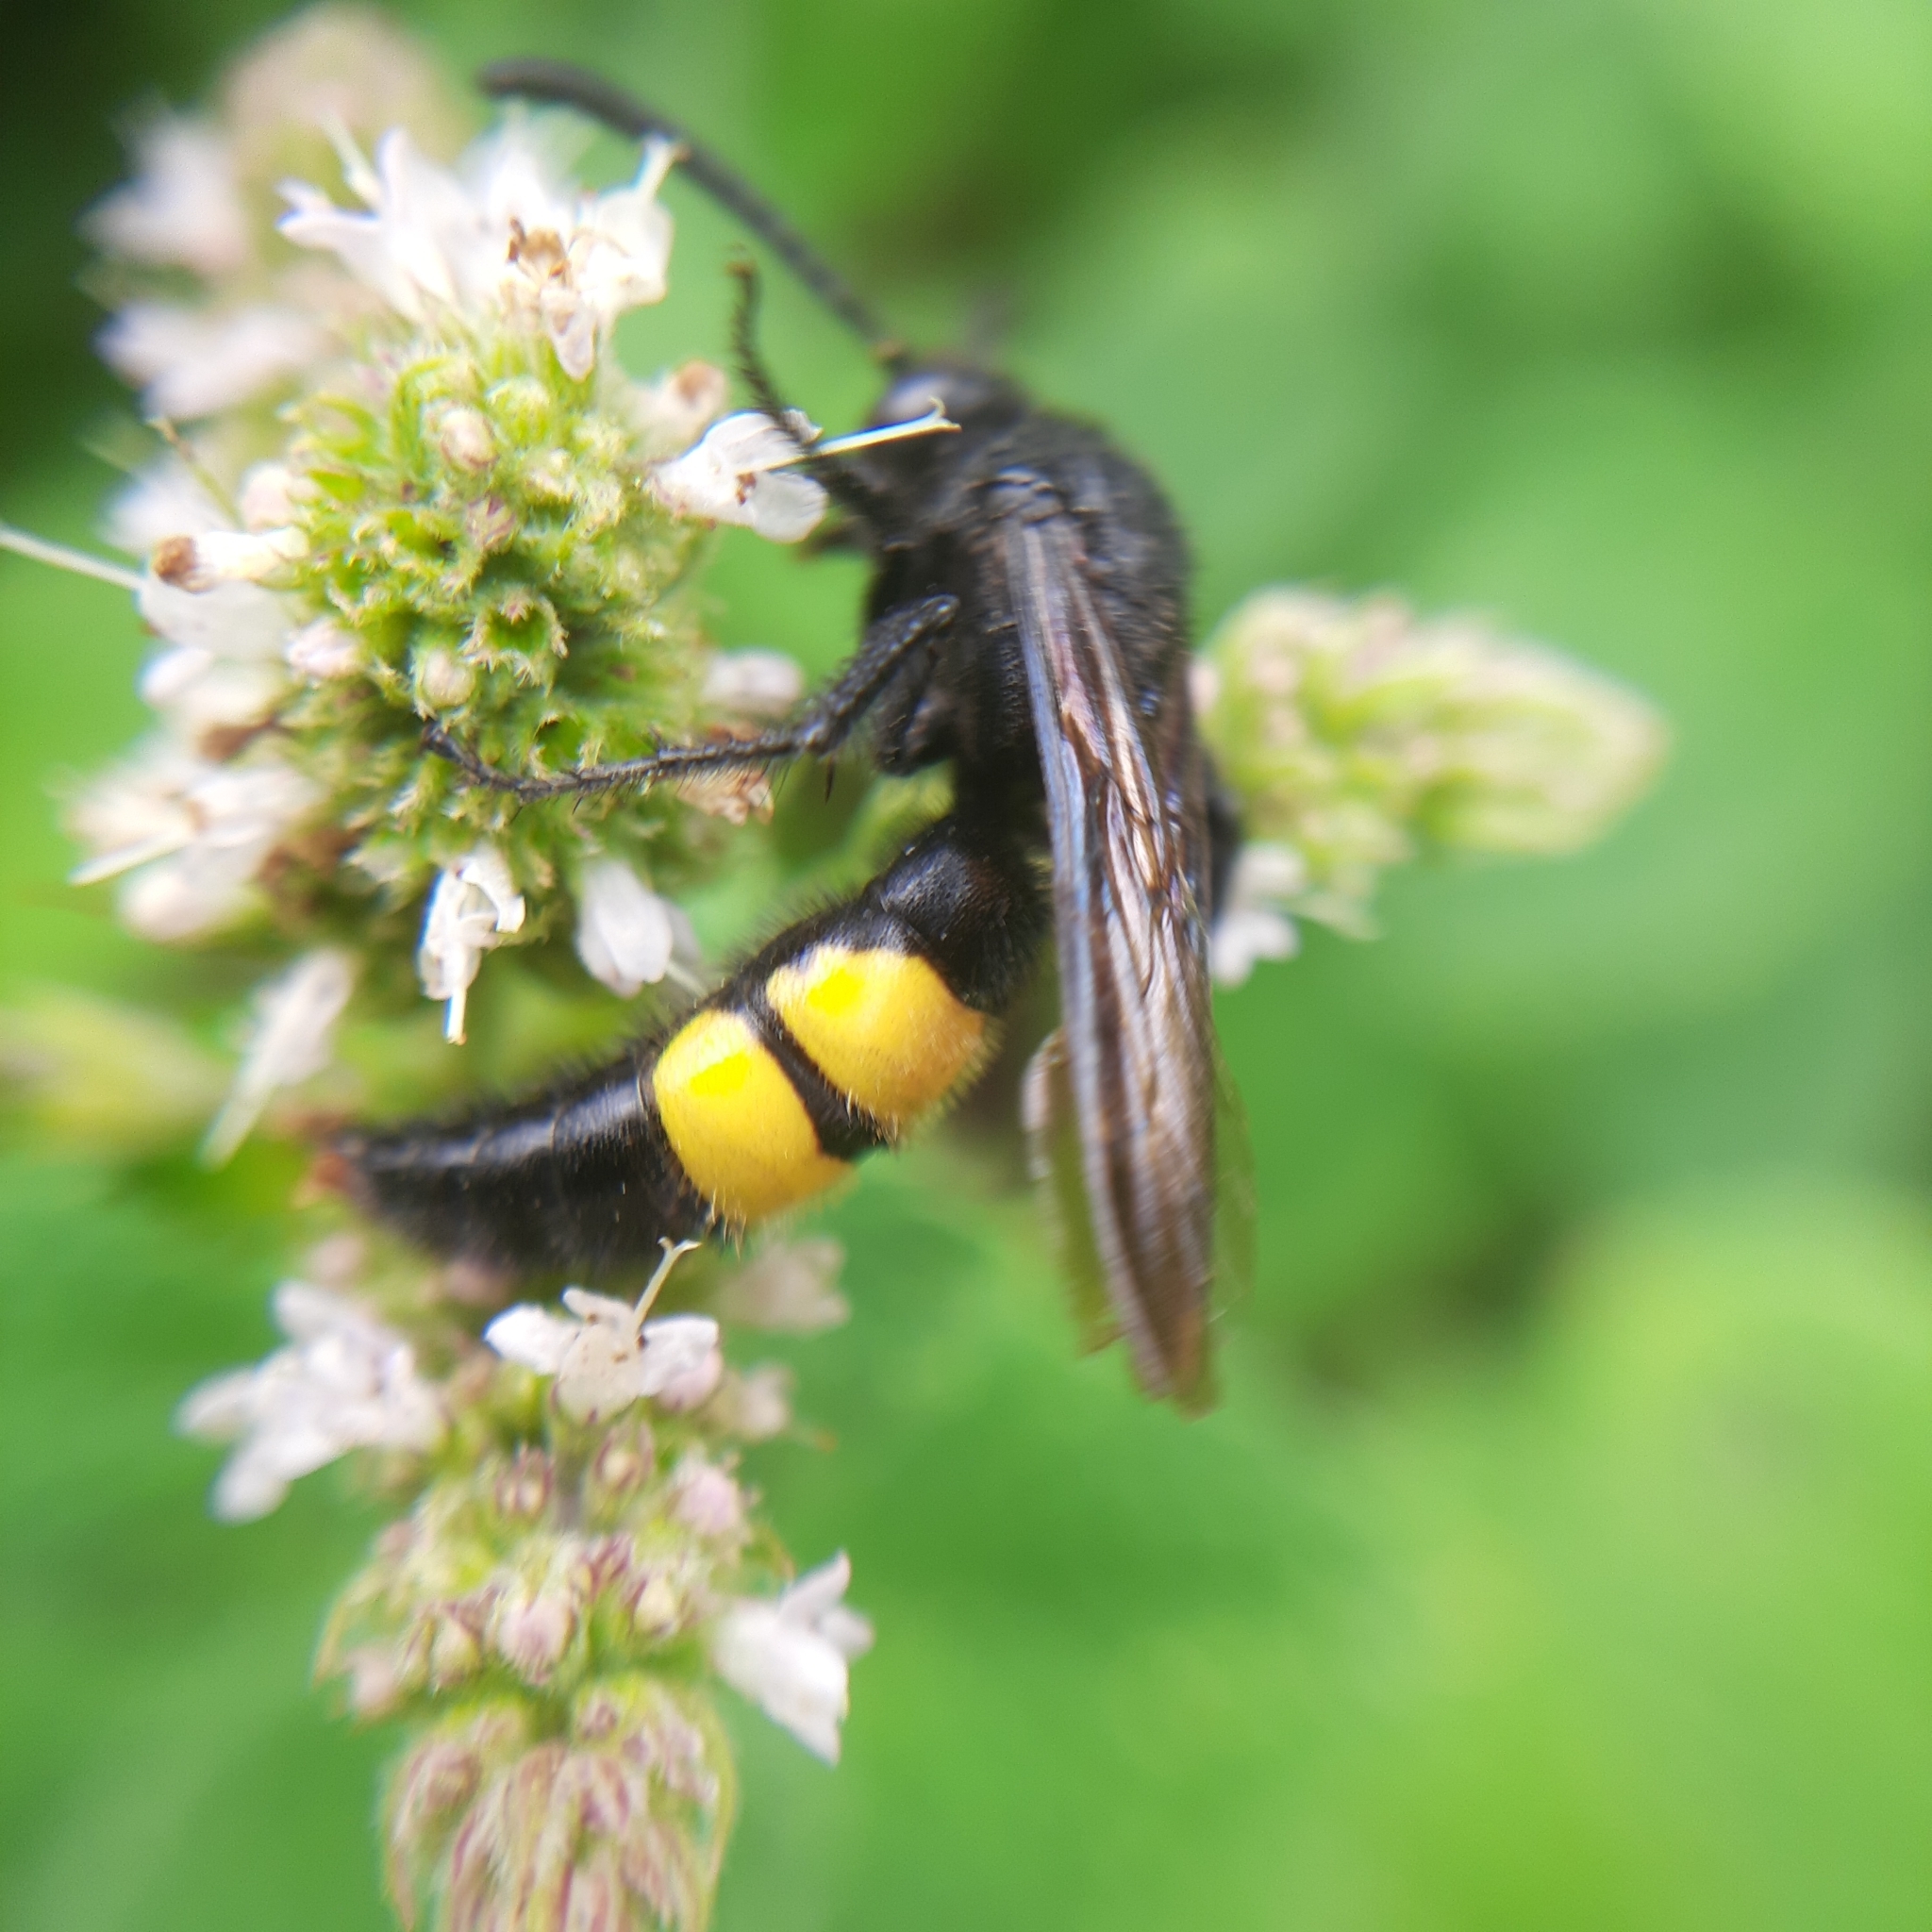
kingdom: Animalia
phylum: Arthropoda
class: Insecta
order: Hymenoptera
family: Scoliidae
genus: Scolia
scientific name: Scolia hirta
